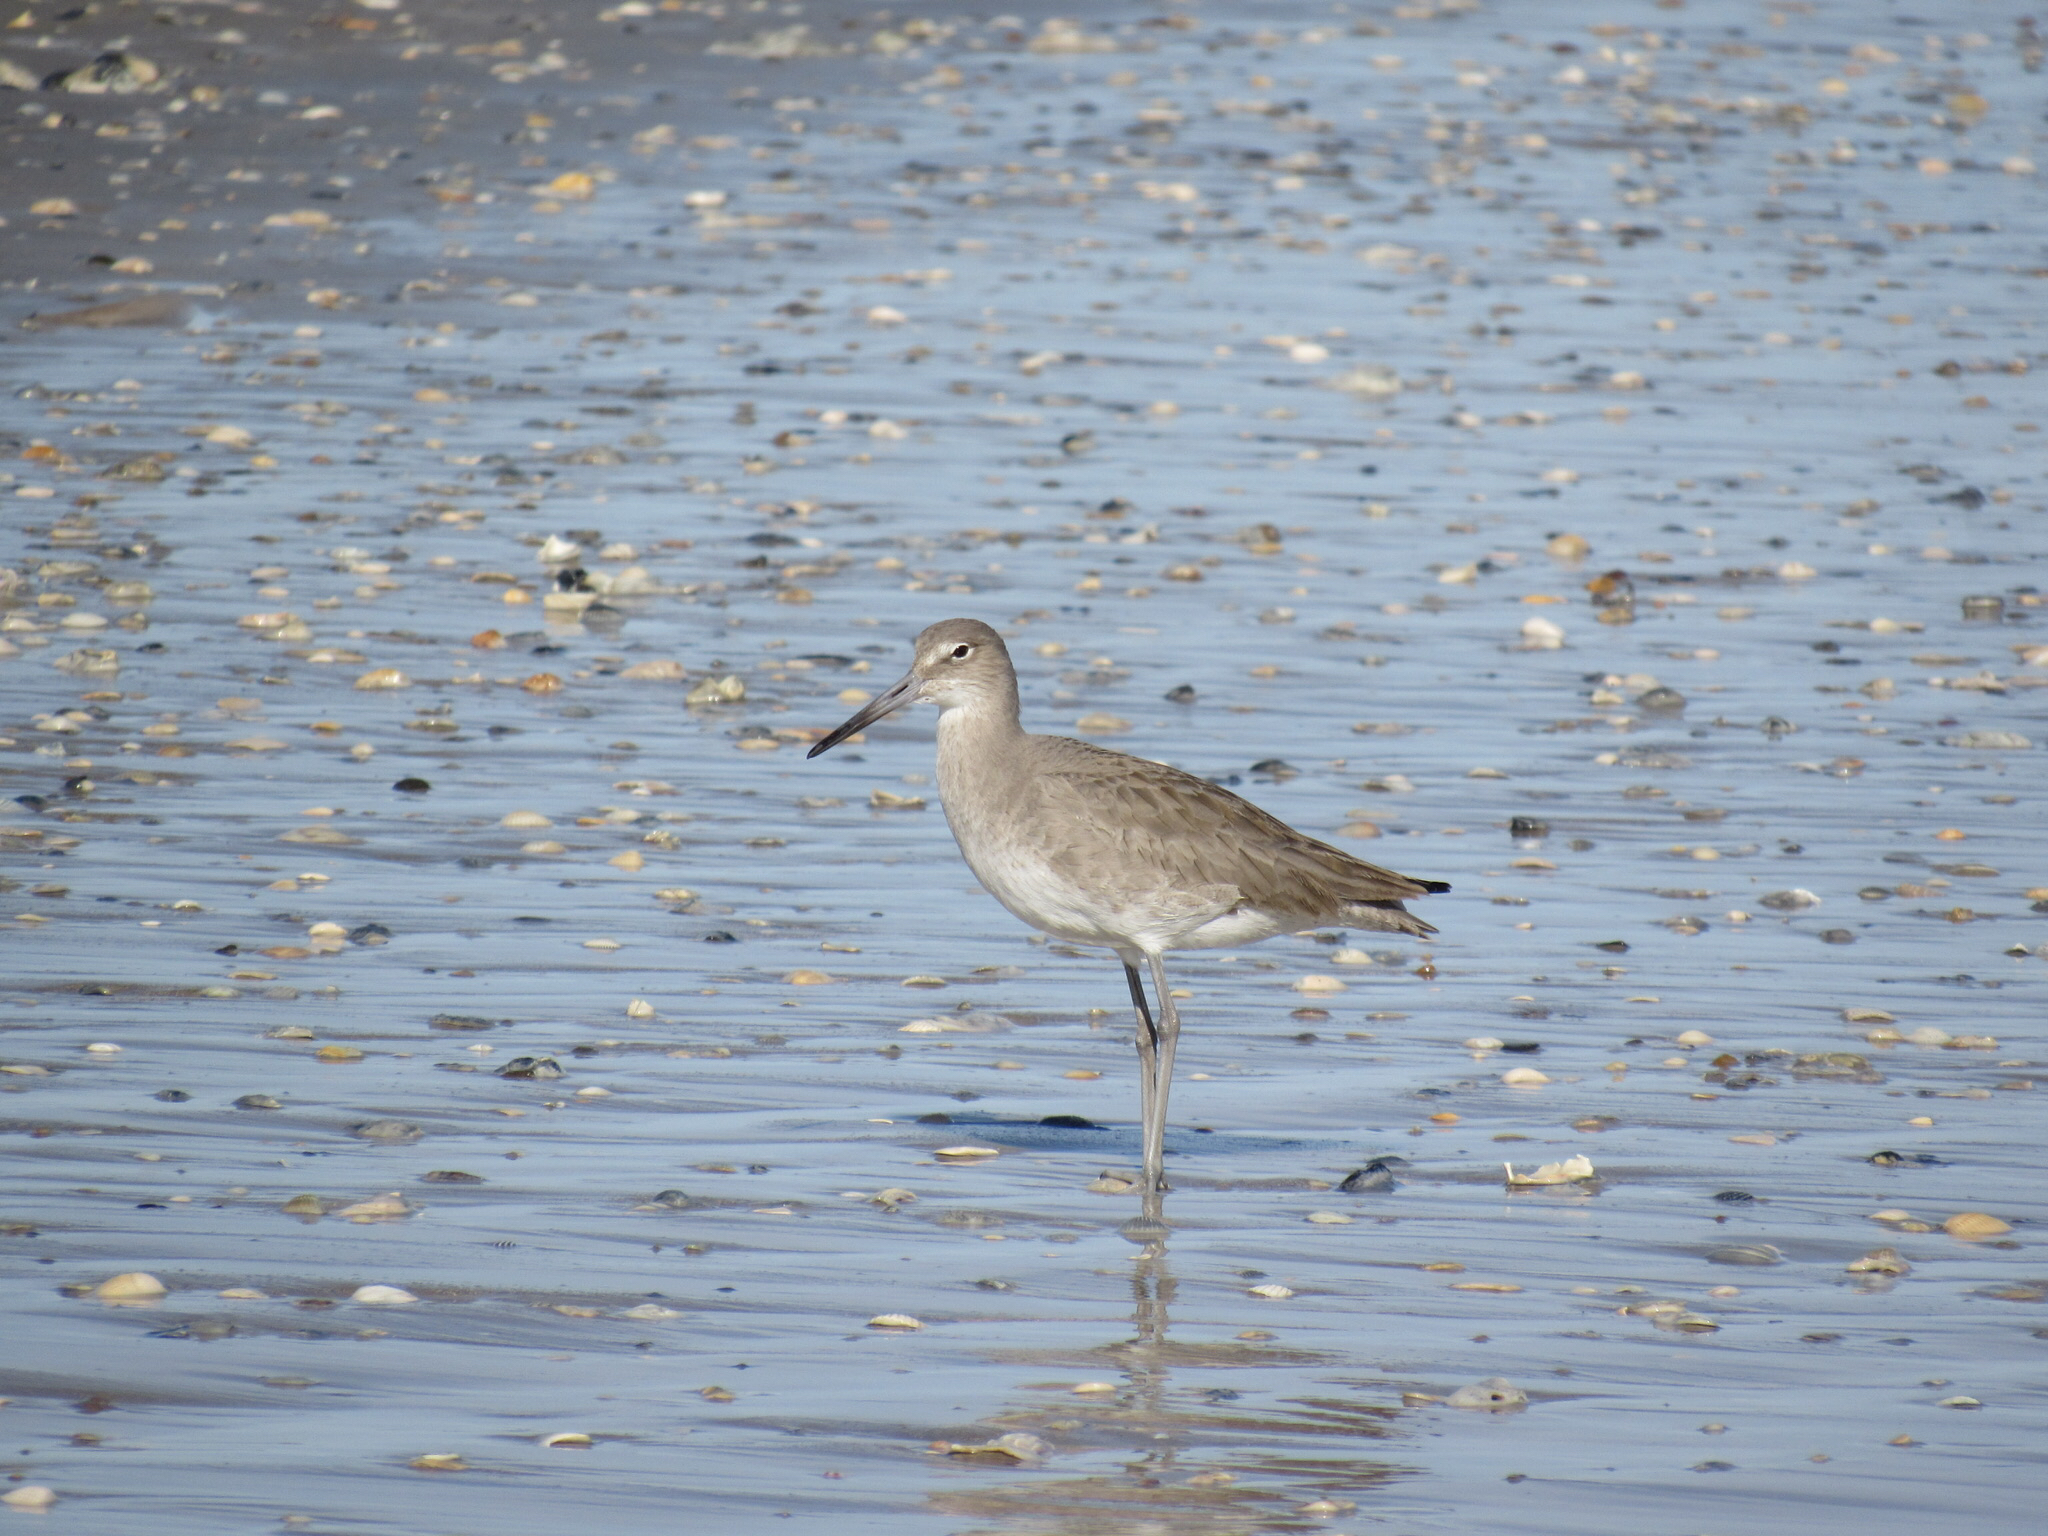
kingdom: Animalia
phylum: Chordata
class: Aves
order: Charadriiformes
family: Scolopacidae
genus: Tringa
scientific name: Tringa semipalmata
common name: Willet
